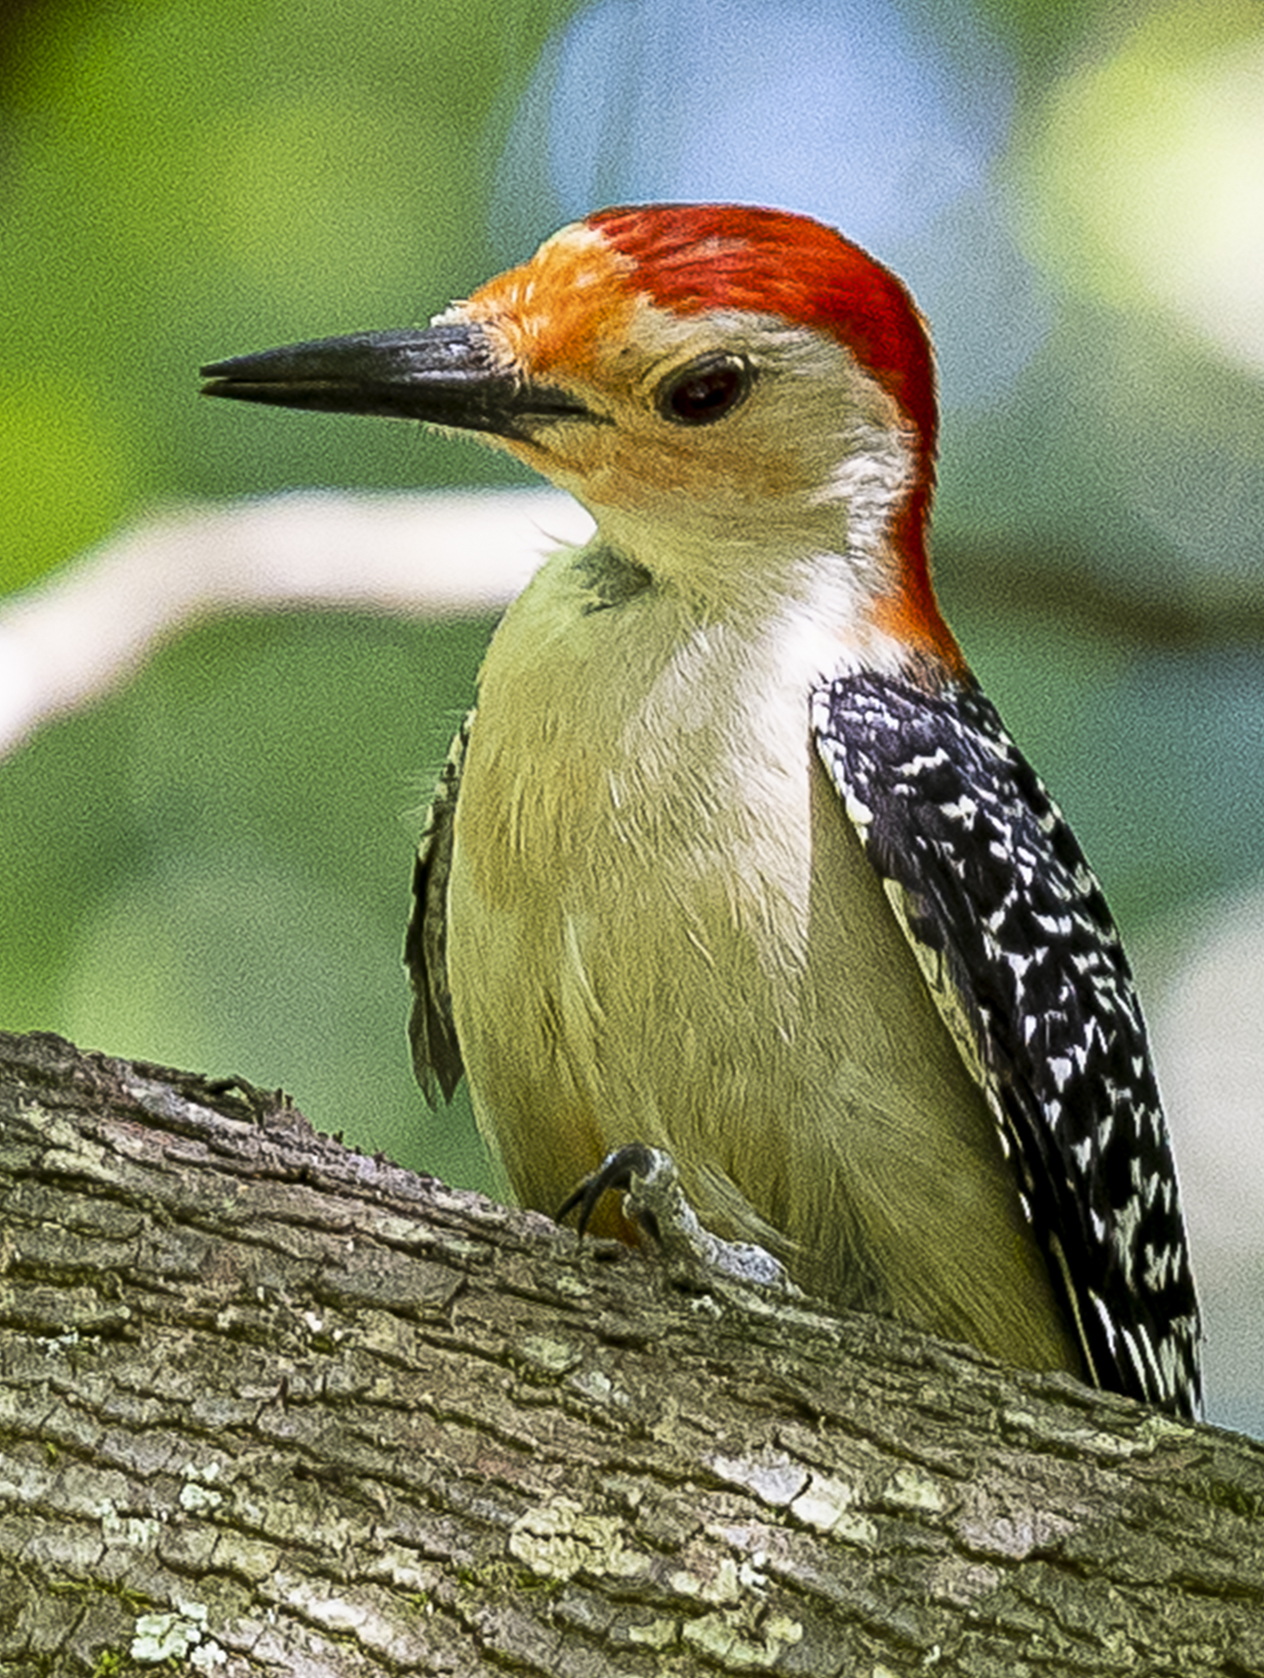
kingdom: Animalia
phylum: Chordata
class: Aves
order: Piciformes
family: Picidae
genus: Melanerpes
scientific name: Melanerpes carolinus
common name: Red-bellied woodpecker
